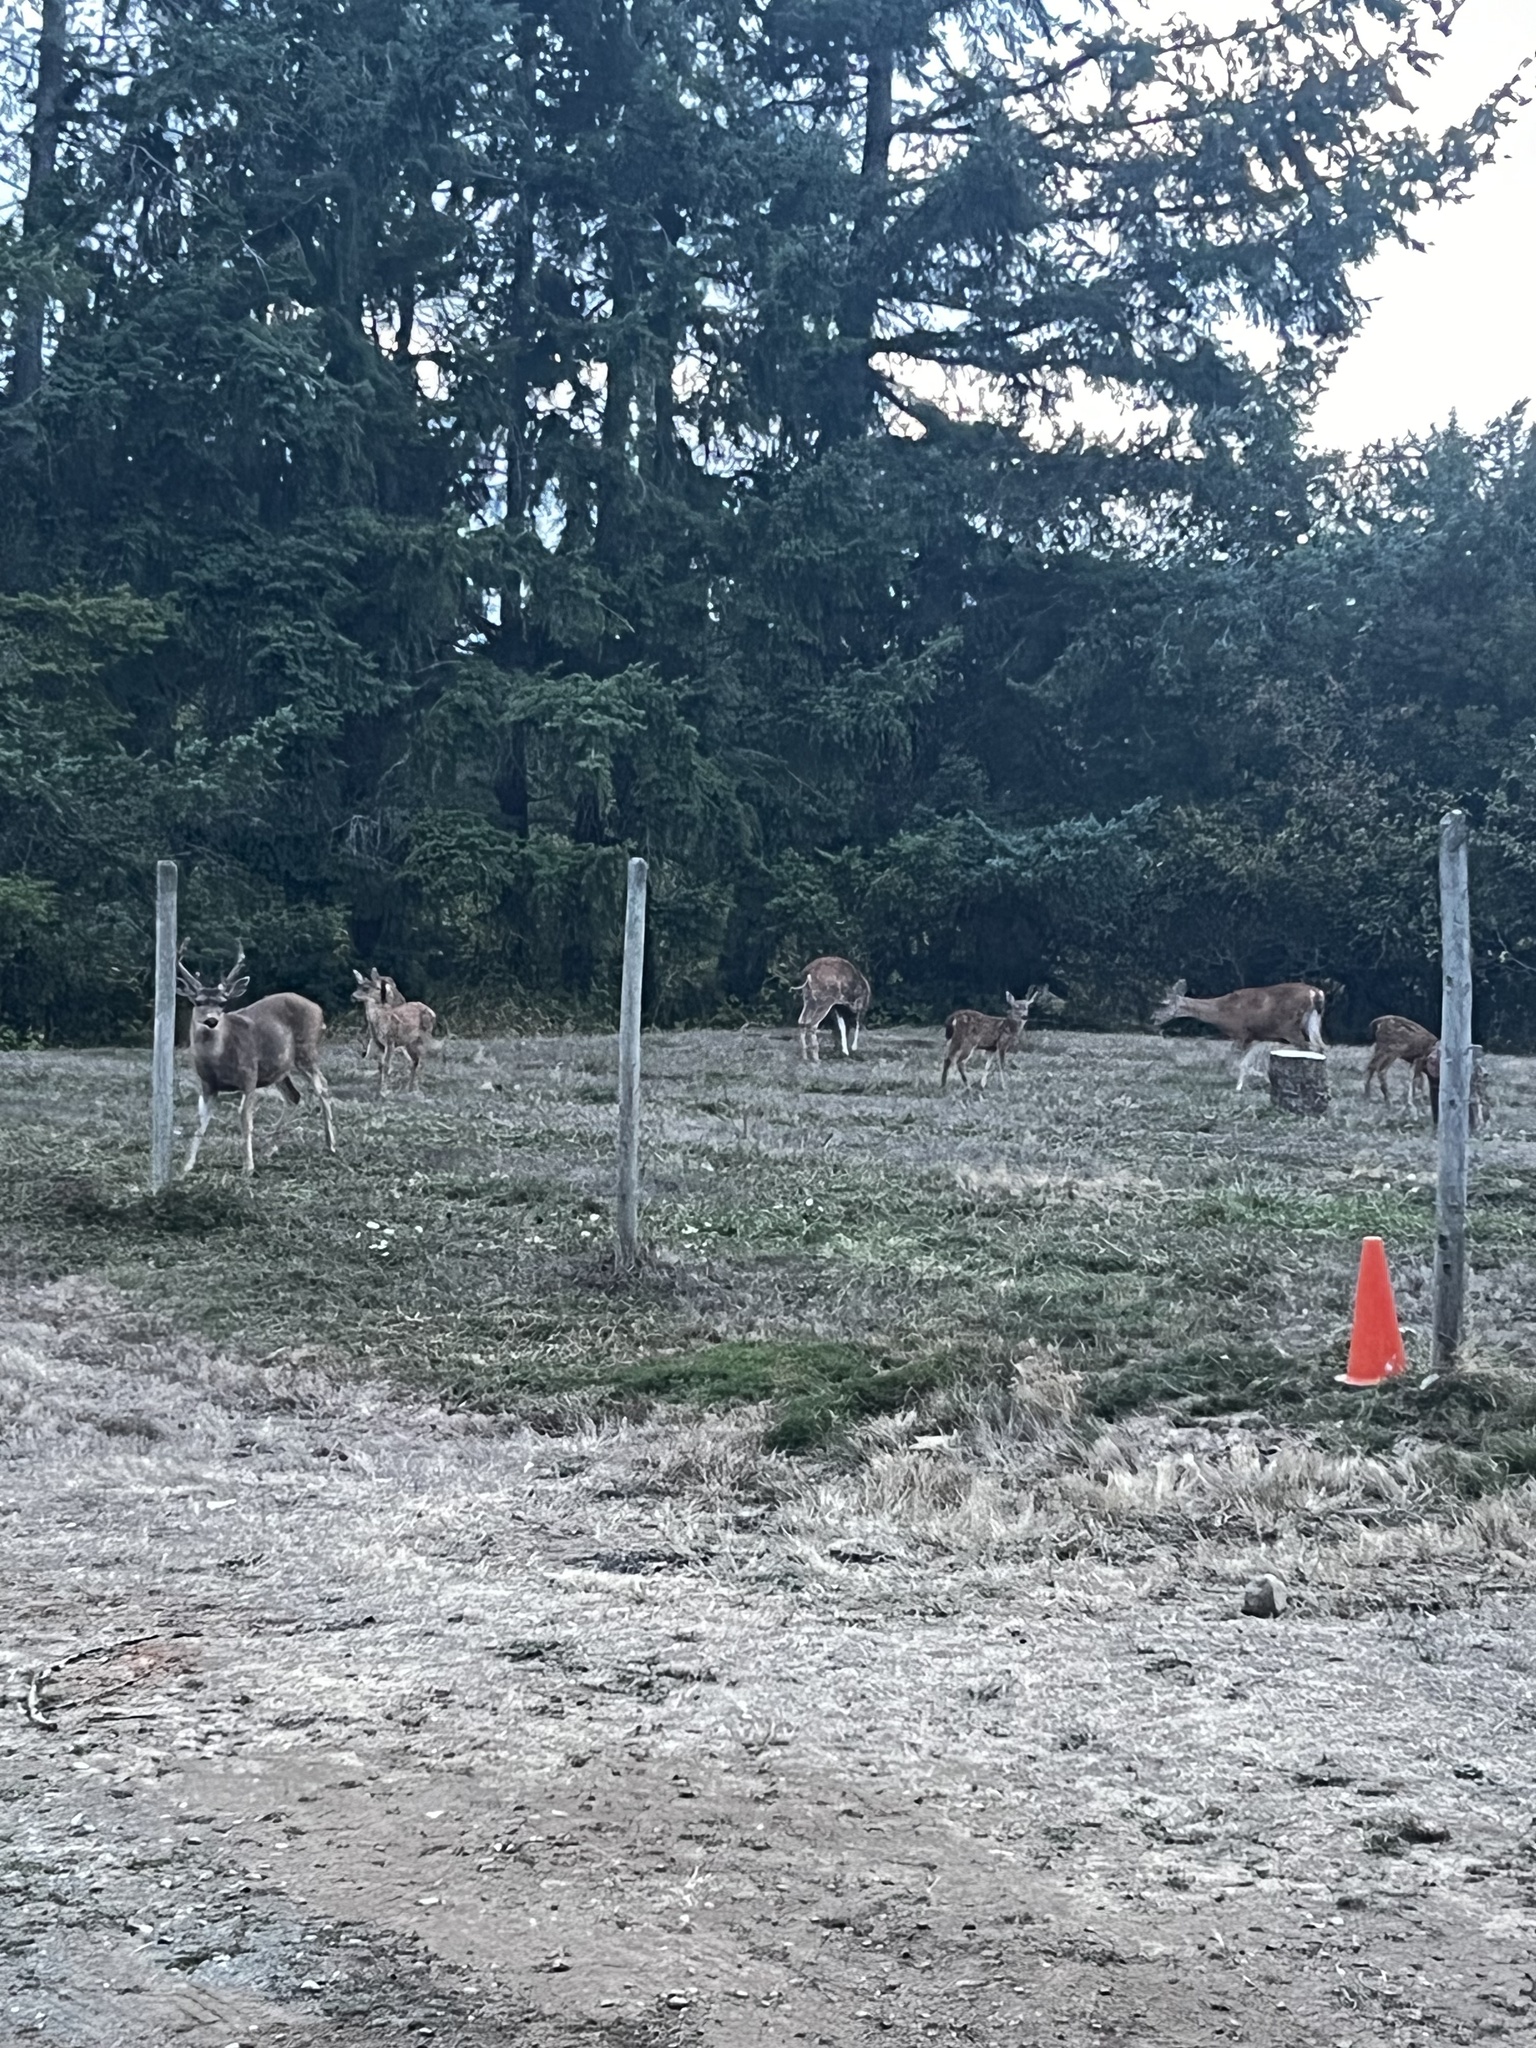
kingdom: Animalia
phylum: Chordata
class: Mammalia
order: Artiodactyla
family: Cervidae
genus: Odocoileus
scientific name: Odocoileus hemionus
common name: Mule deer
